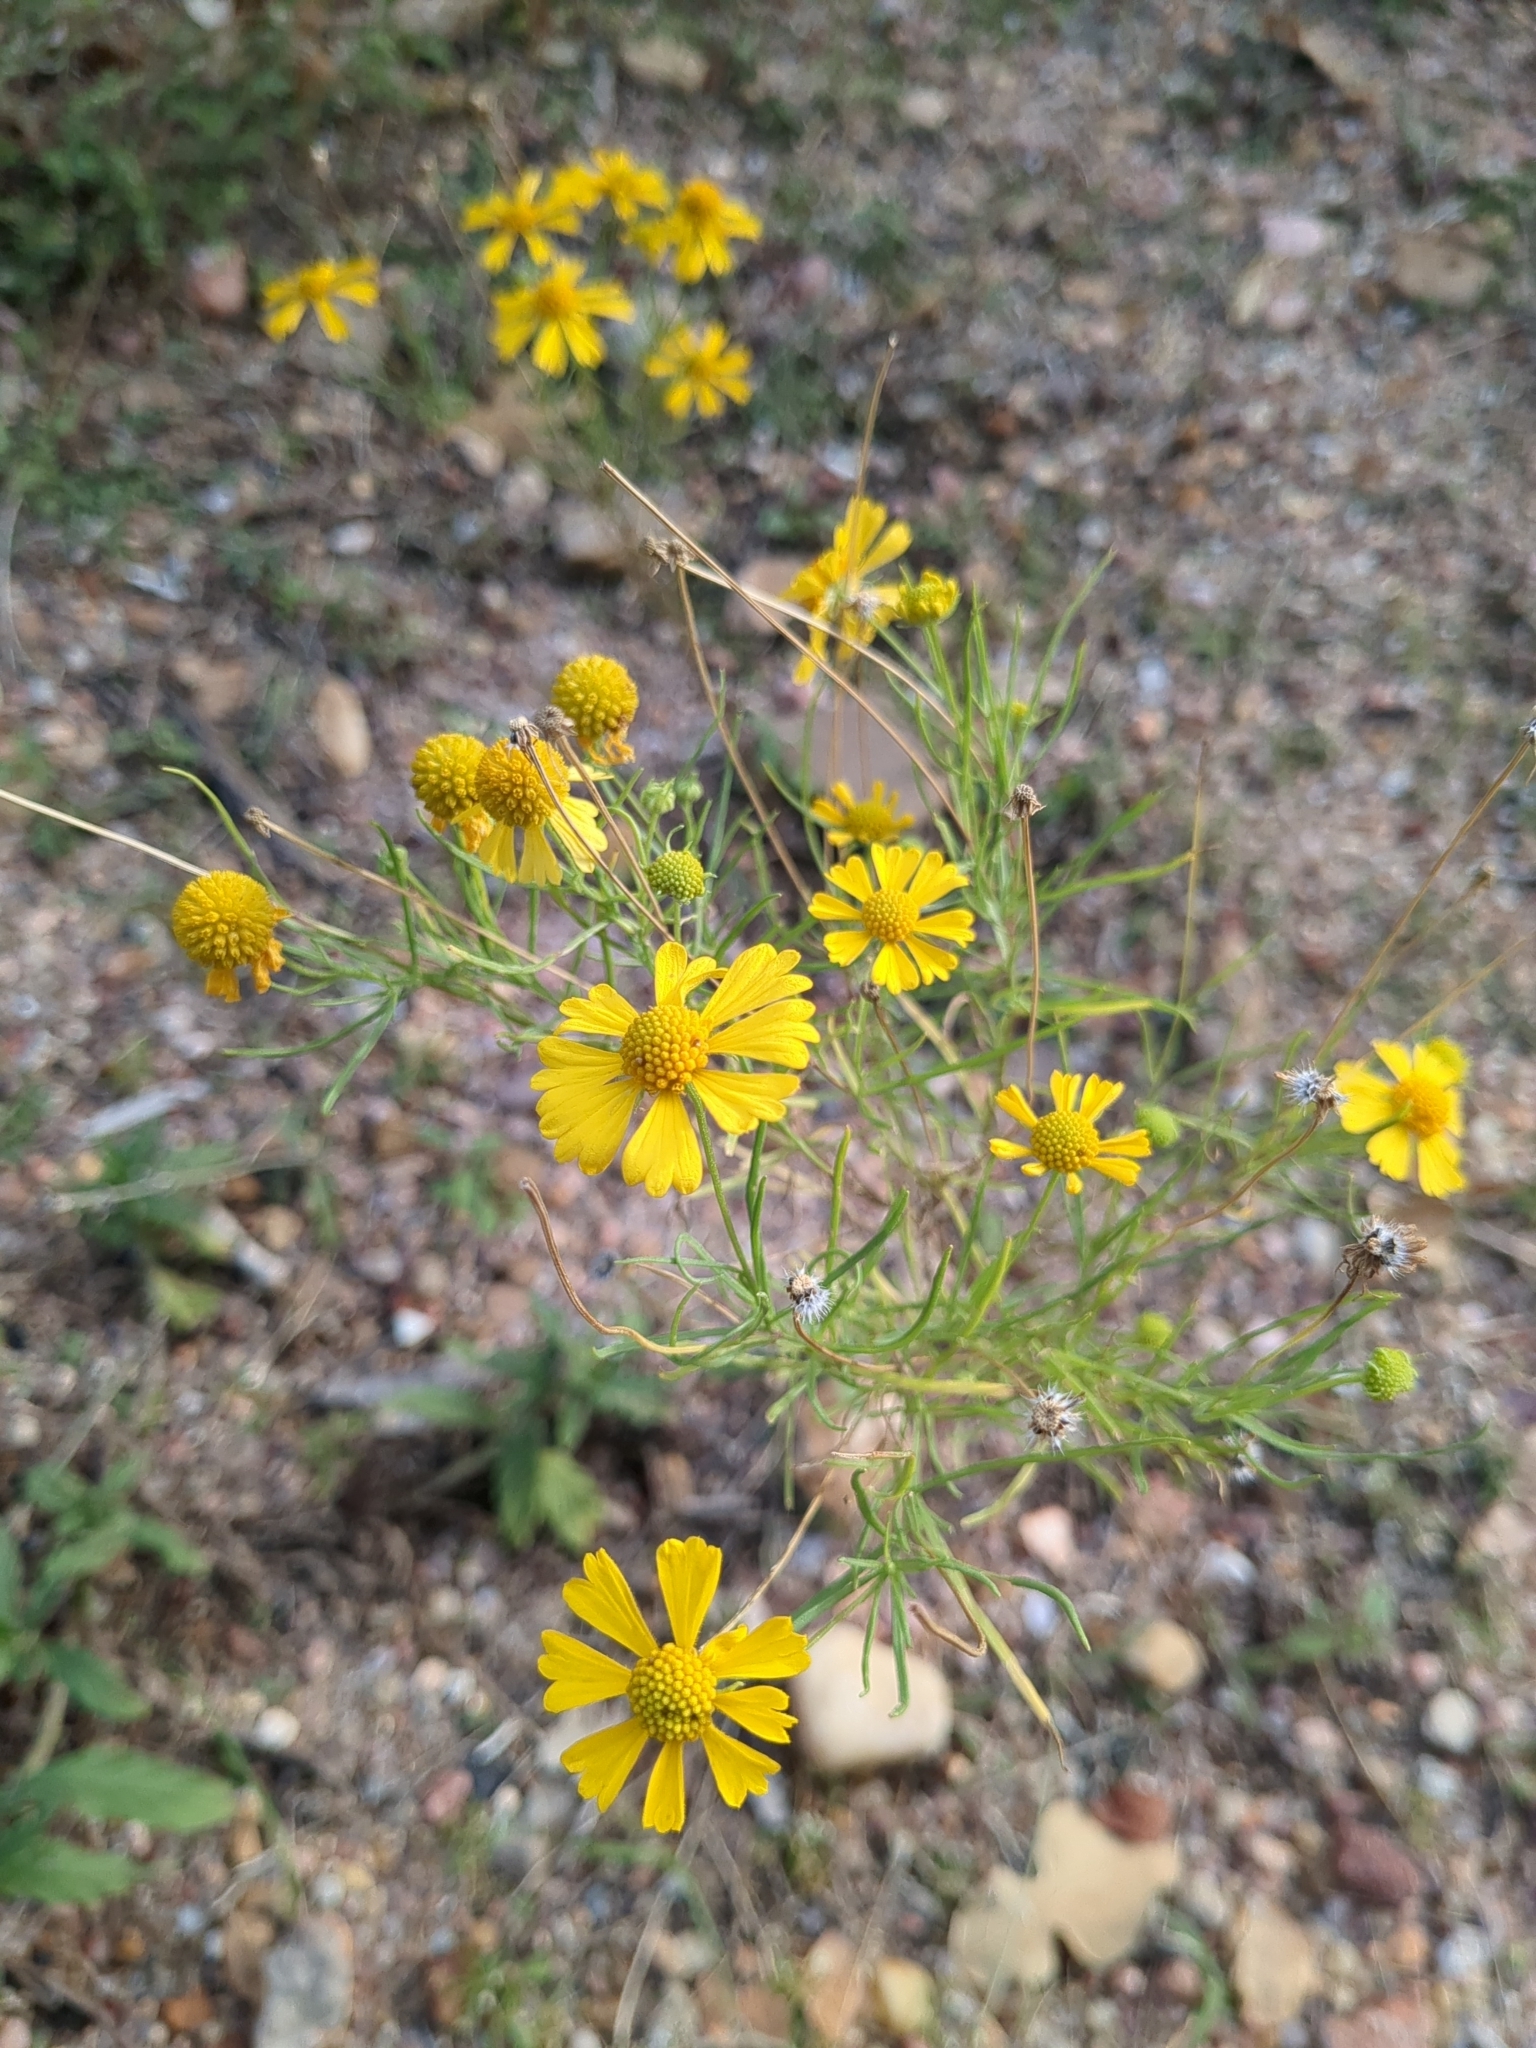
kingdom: Plantae
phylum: Tracheophyta
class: Magnoliopsida
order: Asterales
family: Asteraceae
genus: Helenium
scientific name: Helenium amarum
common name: Bitter sneezeweed
